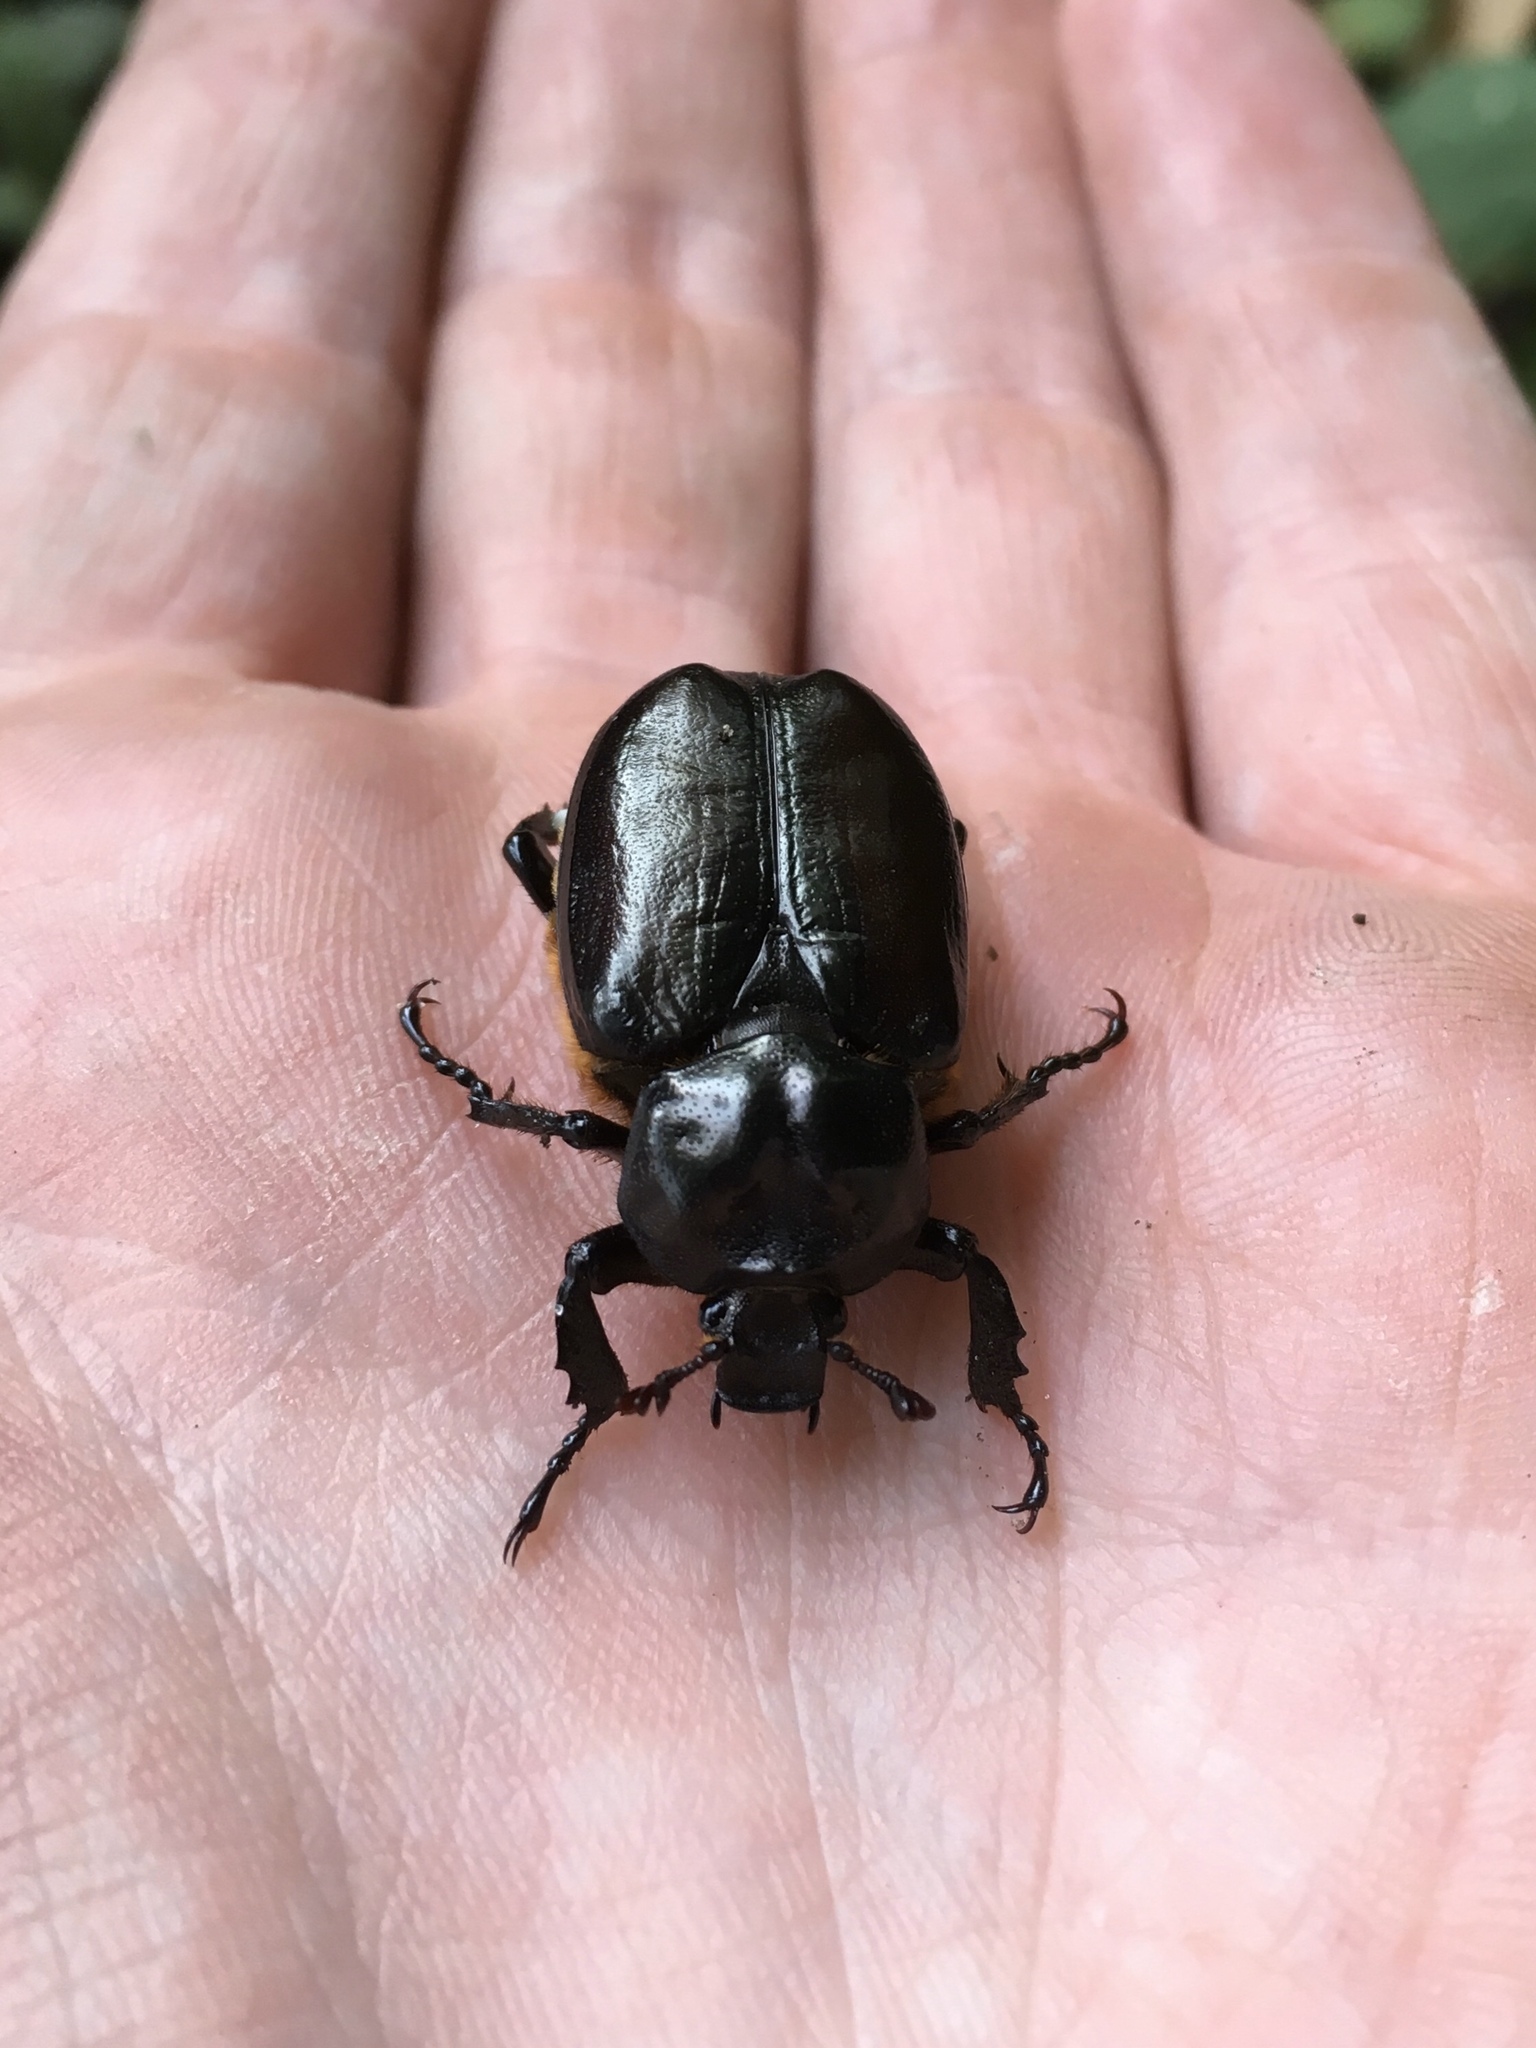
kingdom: Animalia
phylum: Arthropoda
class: Insecta
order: Coleoptera
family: Scarabaeidae
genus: Osmoderma
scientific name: Osmoderma eremicola
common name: Hermit flower beetle
